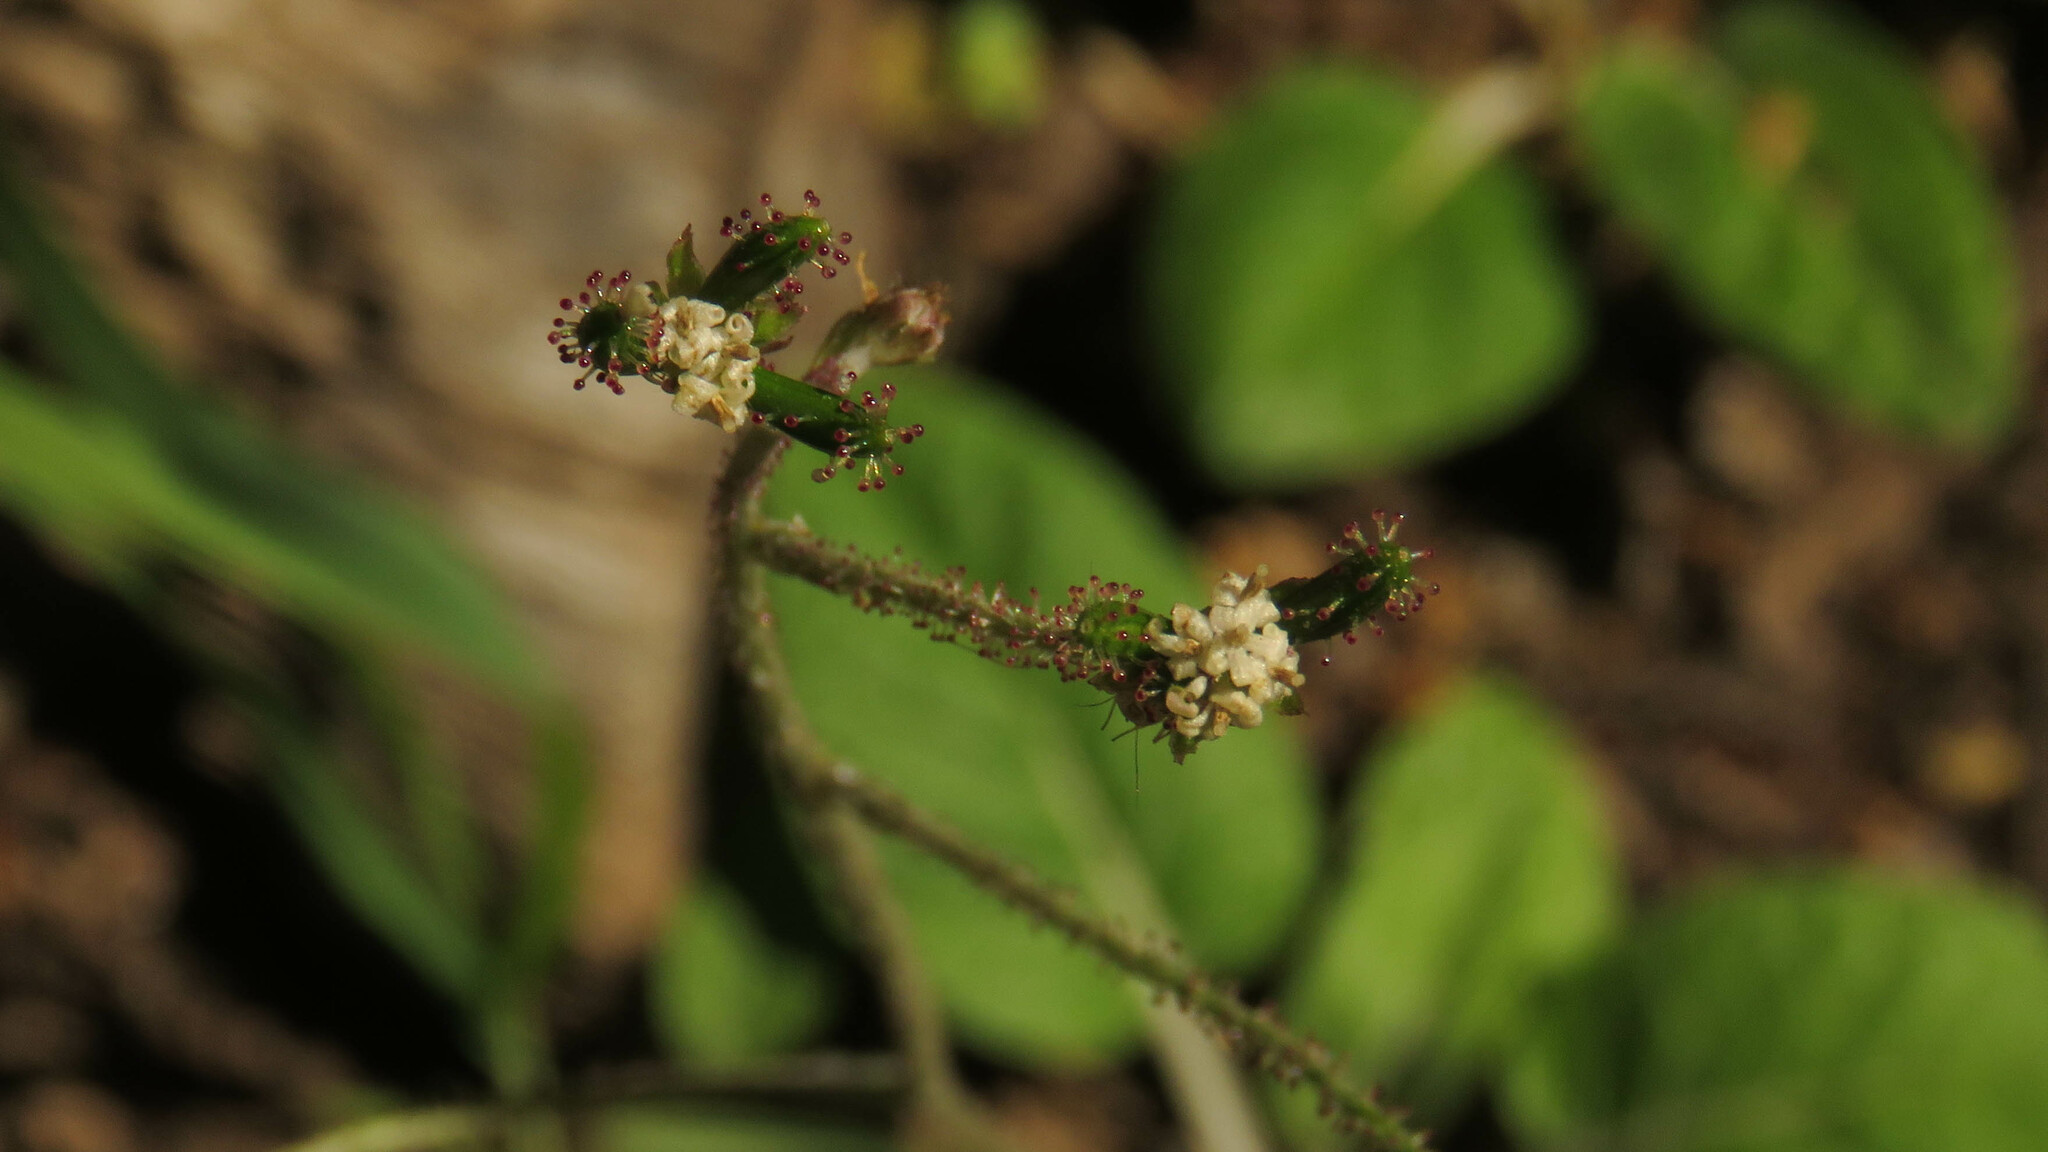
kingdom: Plantae
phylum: Tracheophyta
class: Magnoliopsida
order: Asterales
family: Asteraceae
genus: Adenocaulon
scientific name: Adenocaulon chilense
